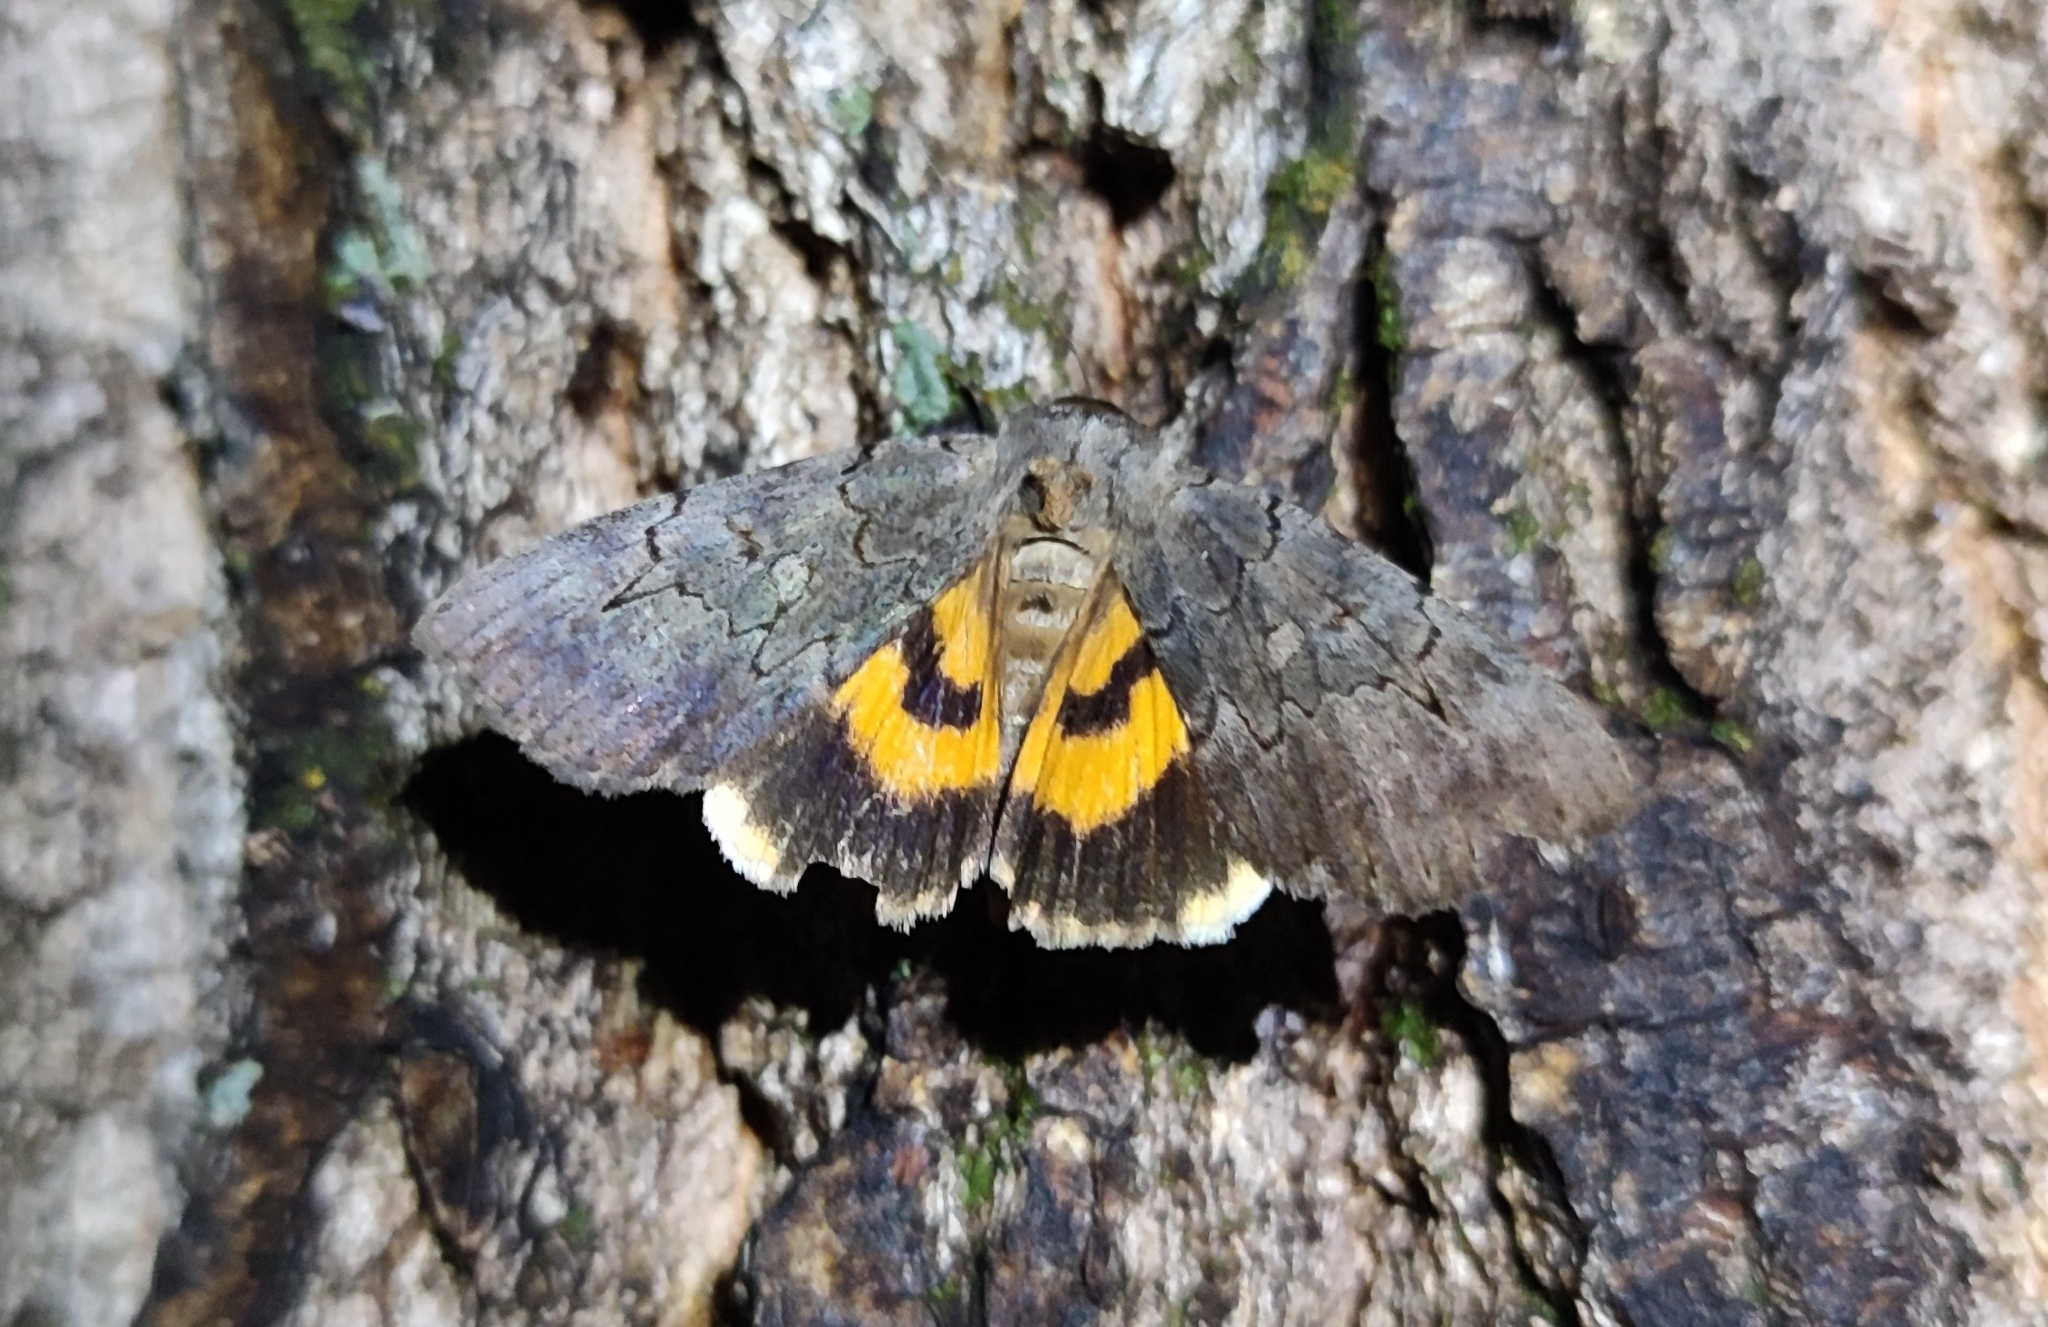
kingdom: Animalia
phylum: Arthropoda
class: Insecta
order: Lepidoptera
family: Erebidae
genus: Catocala
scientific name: Catocala bella
